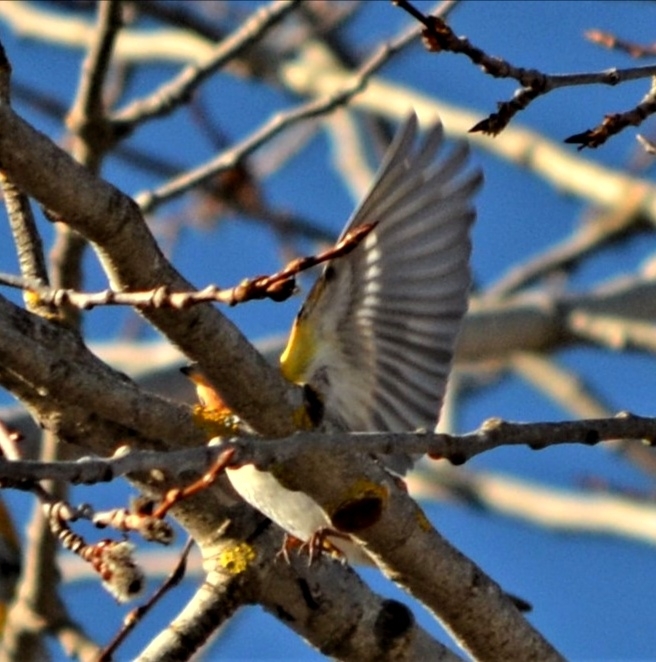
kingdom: Animalia
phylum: Chordata
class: Aves
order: Passeriformes
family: Fringillidae
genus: Fringilla
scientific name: Fringilla montifringilla
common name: Brambling
